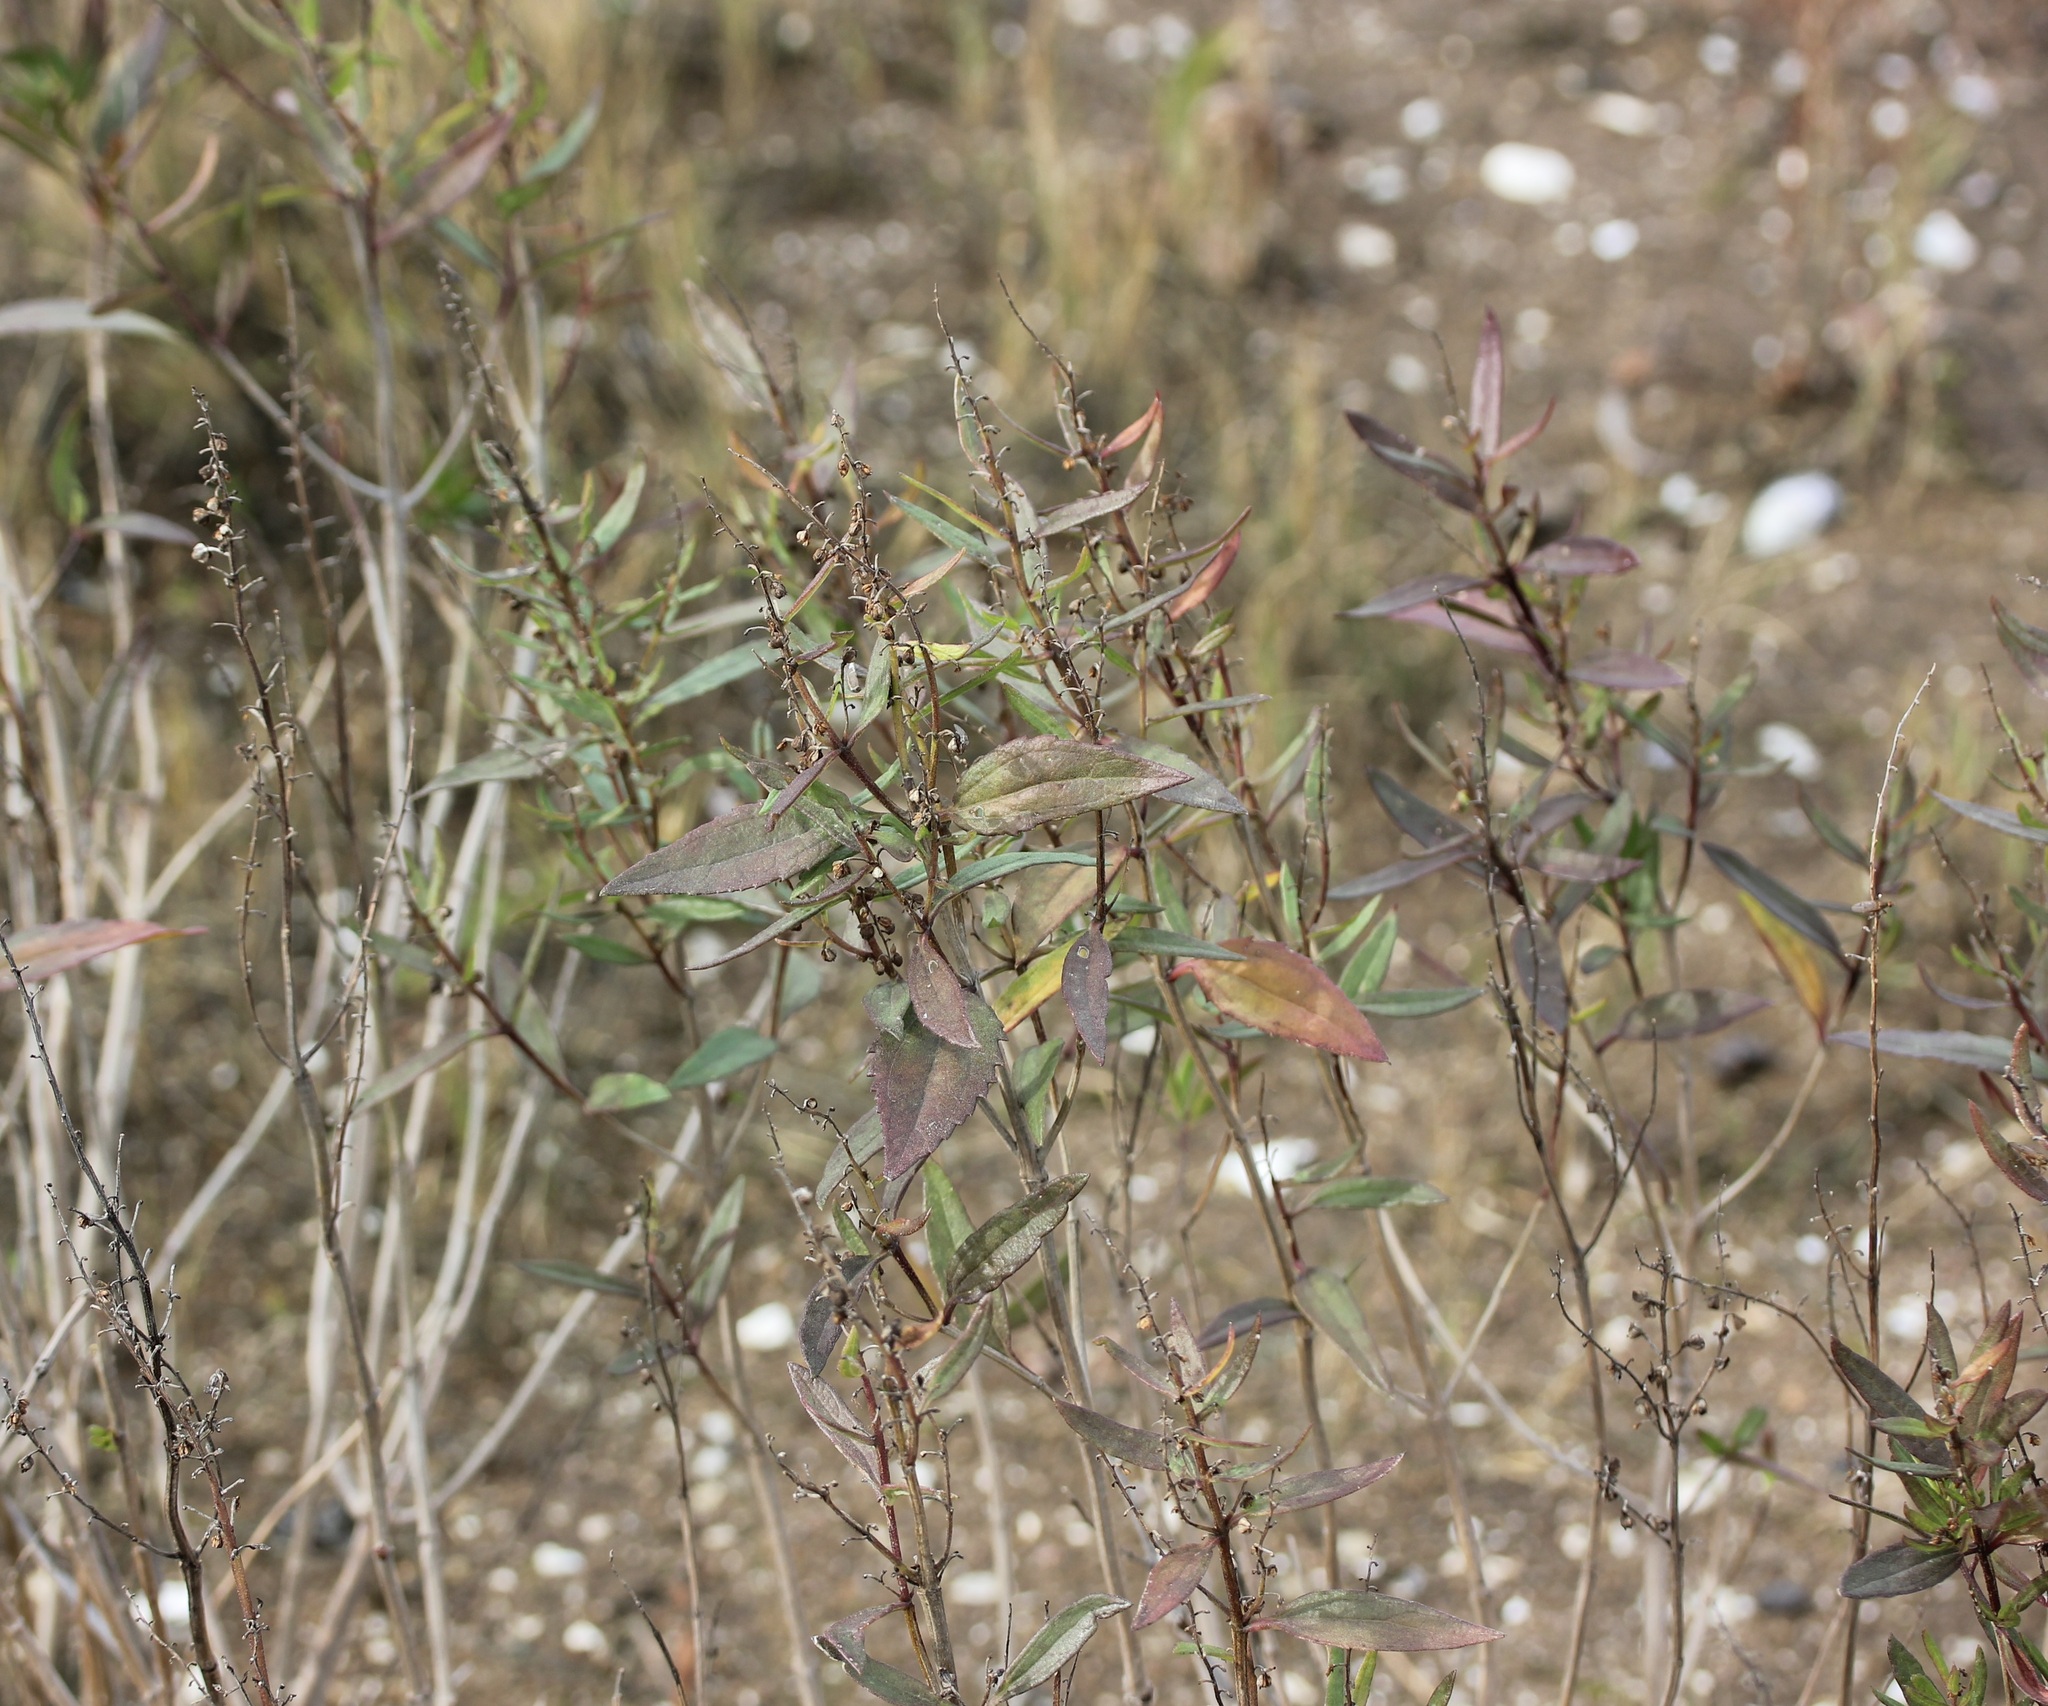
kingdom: Plantae
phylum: Tracheophyta
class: Magnoliopsida
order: Asterales
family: Asteraceae
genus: Iva
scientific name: Iva frutescens
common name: Big-leaved marsh-elder
